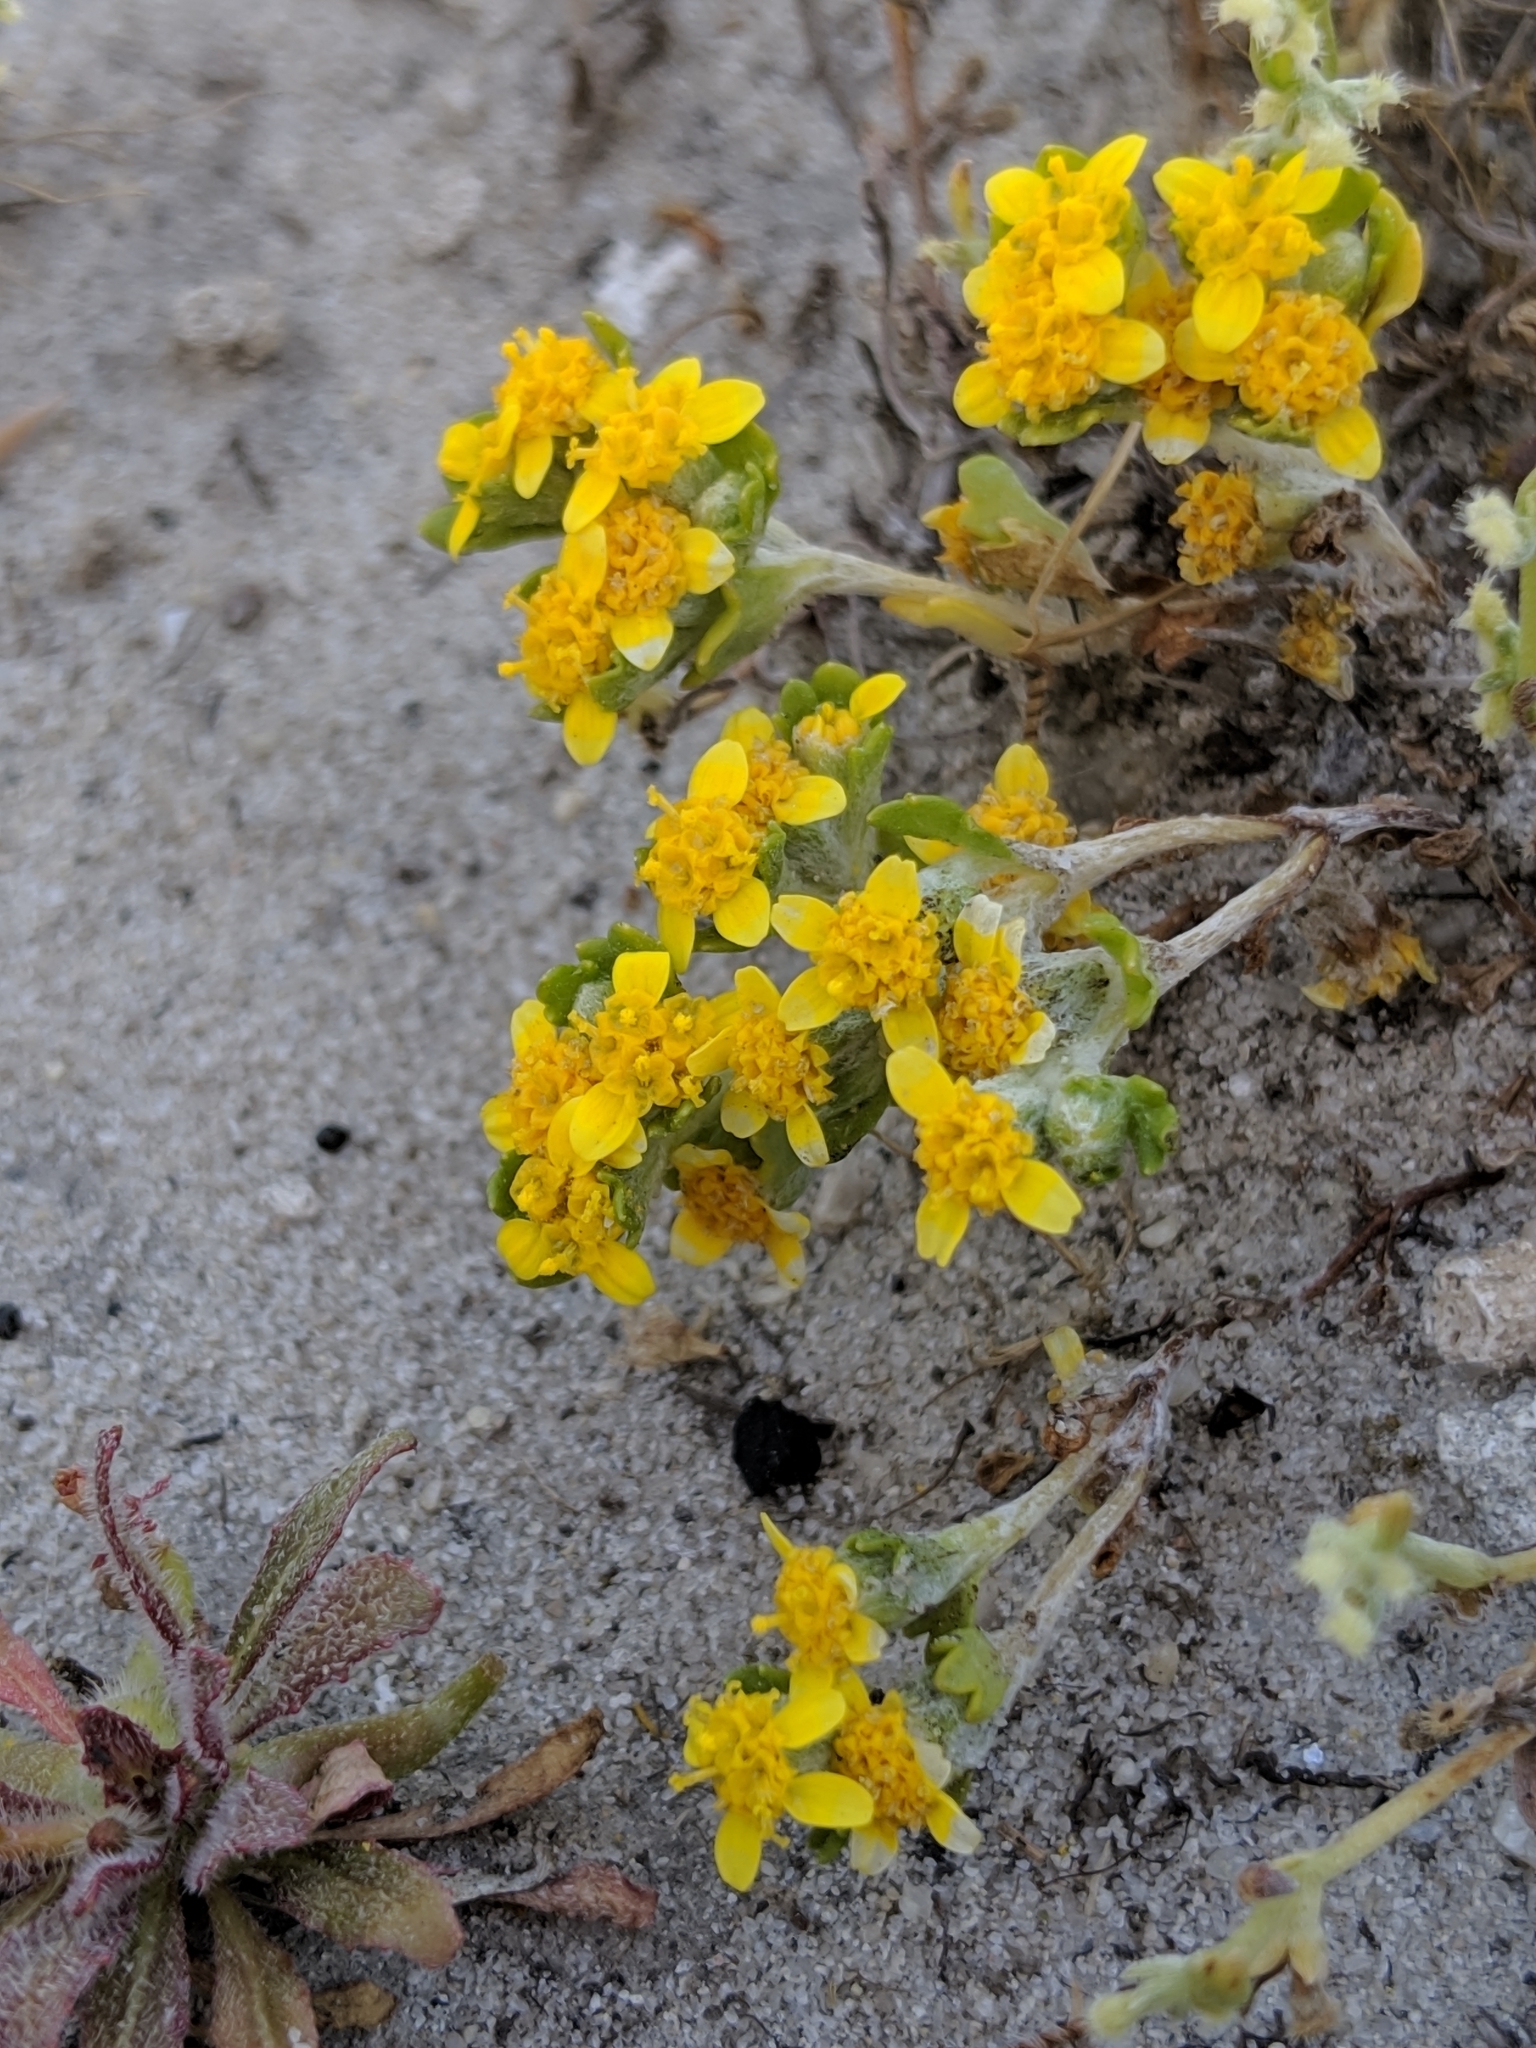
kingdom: Plantae
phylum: Tracheophyta
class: Magnoliopsida
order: Asterales
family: Asteraceae
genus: Eriophyllum
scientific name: Eriophyllum multicaule
